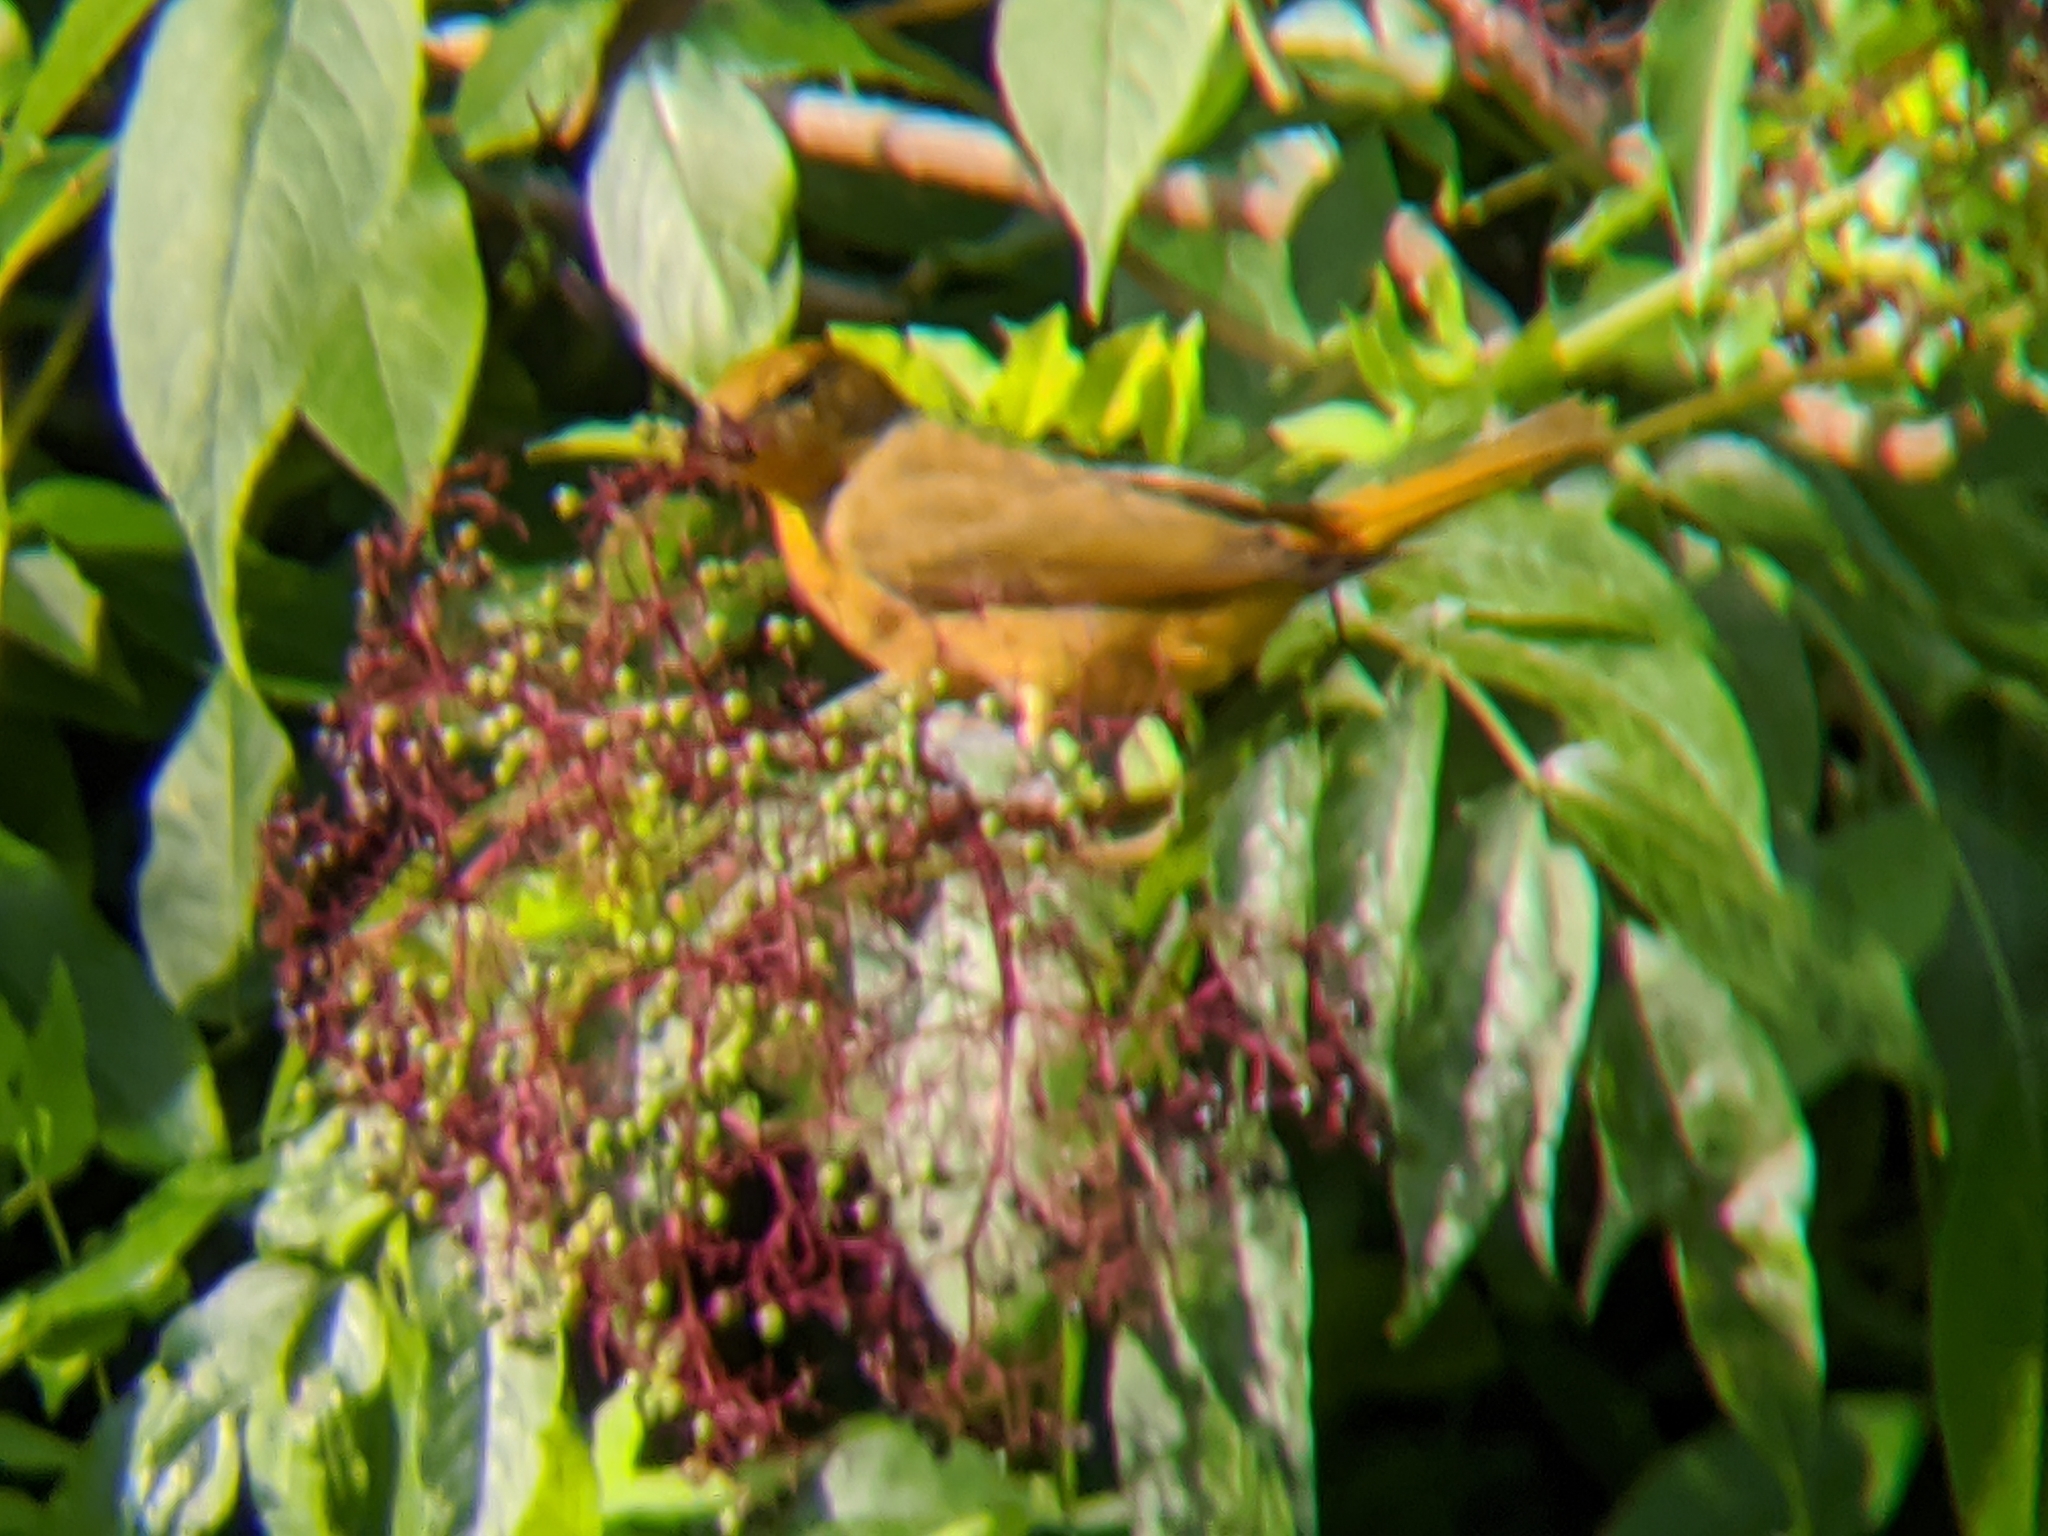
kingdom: Animalia
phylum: Chordata
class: Aves
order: Passeriformes
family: Cardinalidae
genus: Piranga
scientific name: Piranga rubra
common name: Summer tanager
